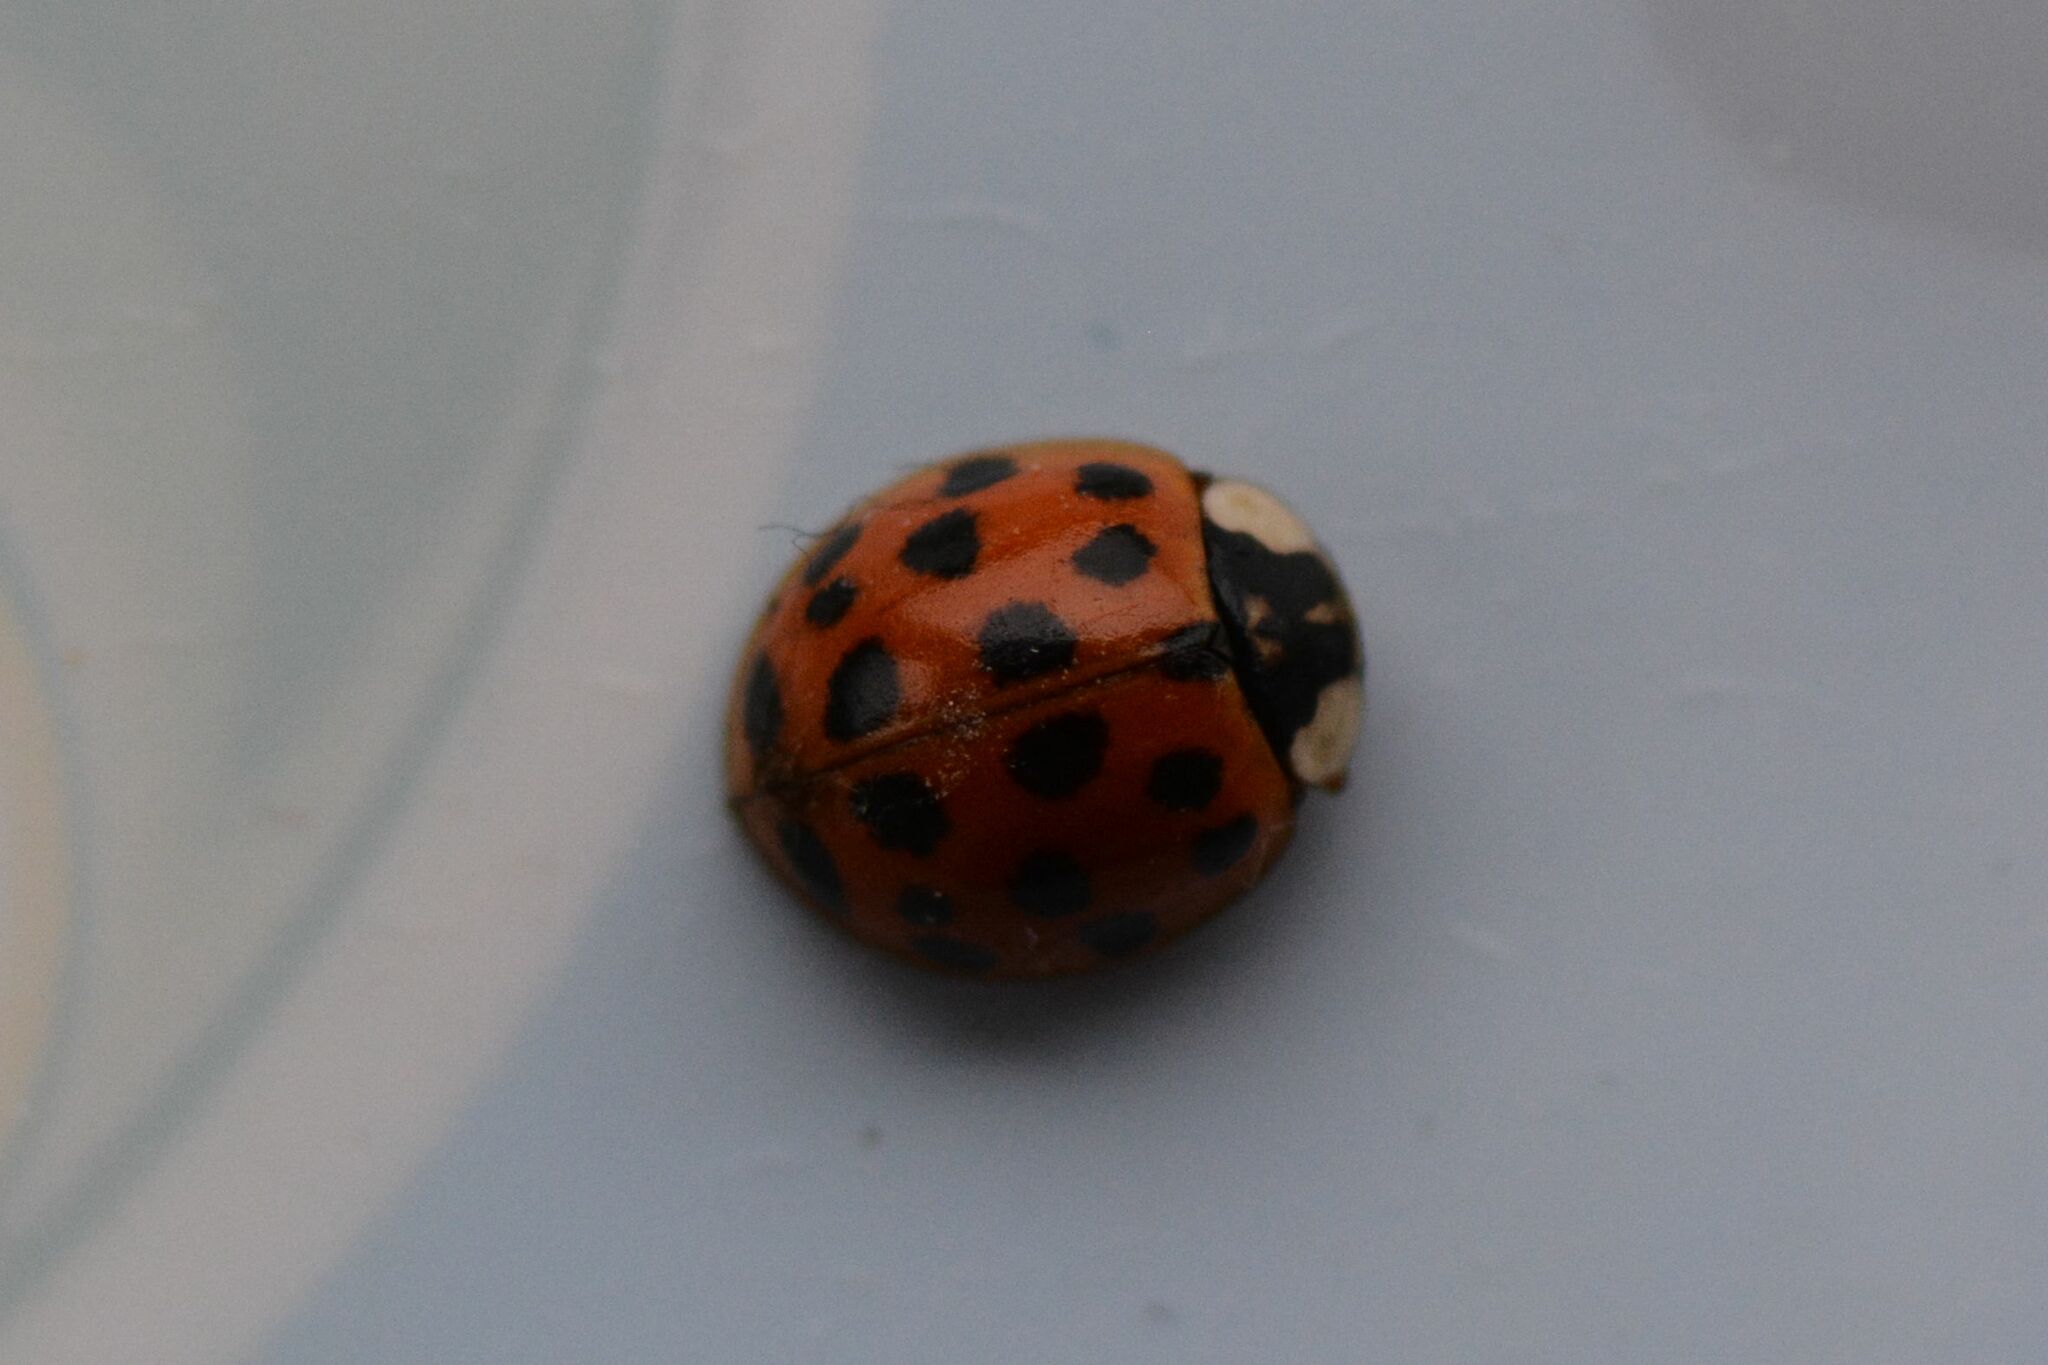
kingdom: Animalia
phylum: Arthropoda
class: Insecta
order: Coleoptera
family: Coccinellidae
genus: Harmonia
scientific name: Harmonia axyridis
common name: Harlequin ladybird
